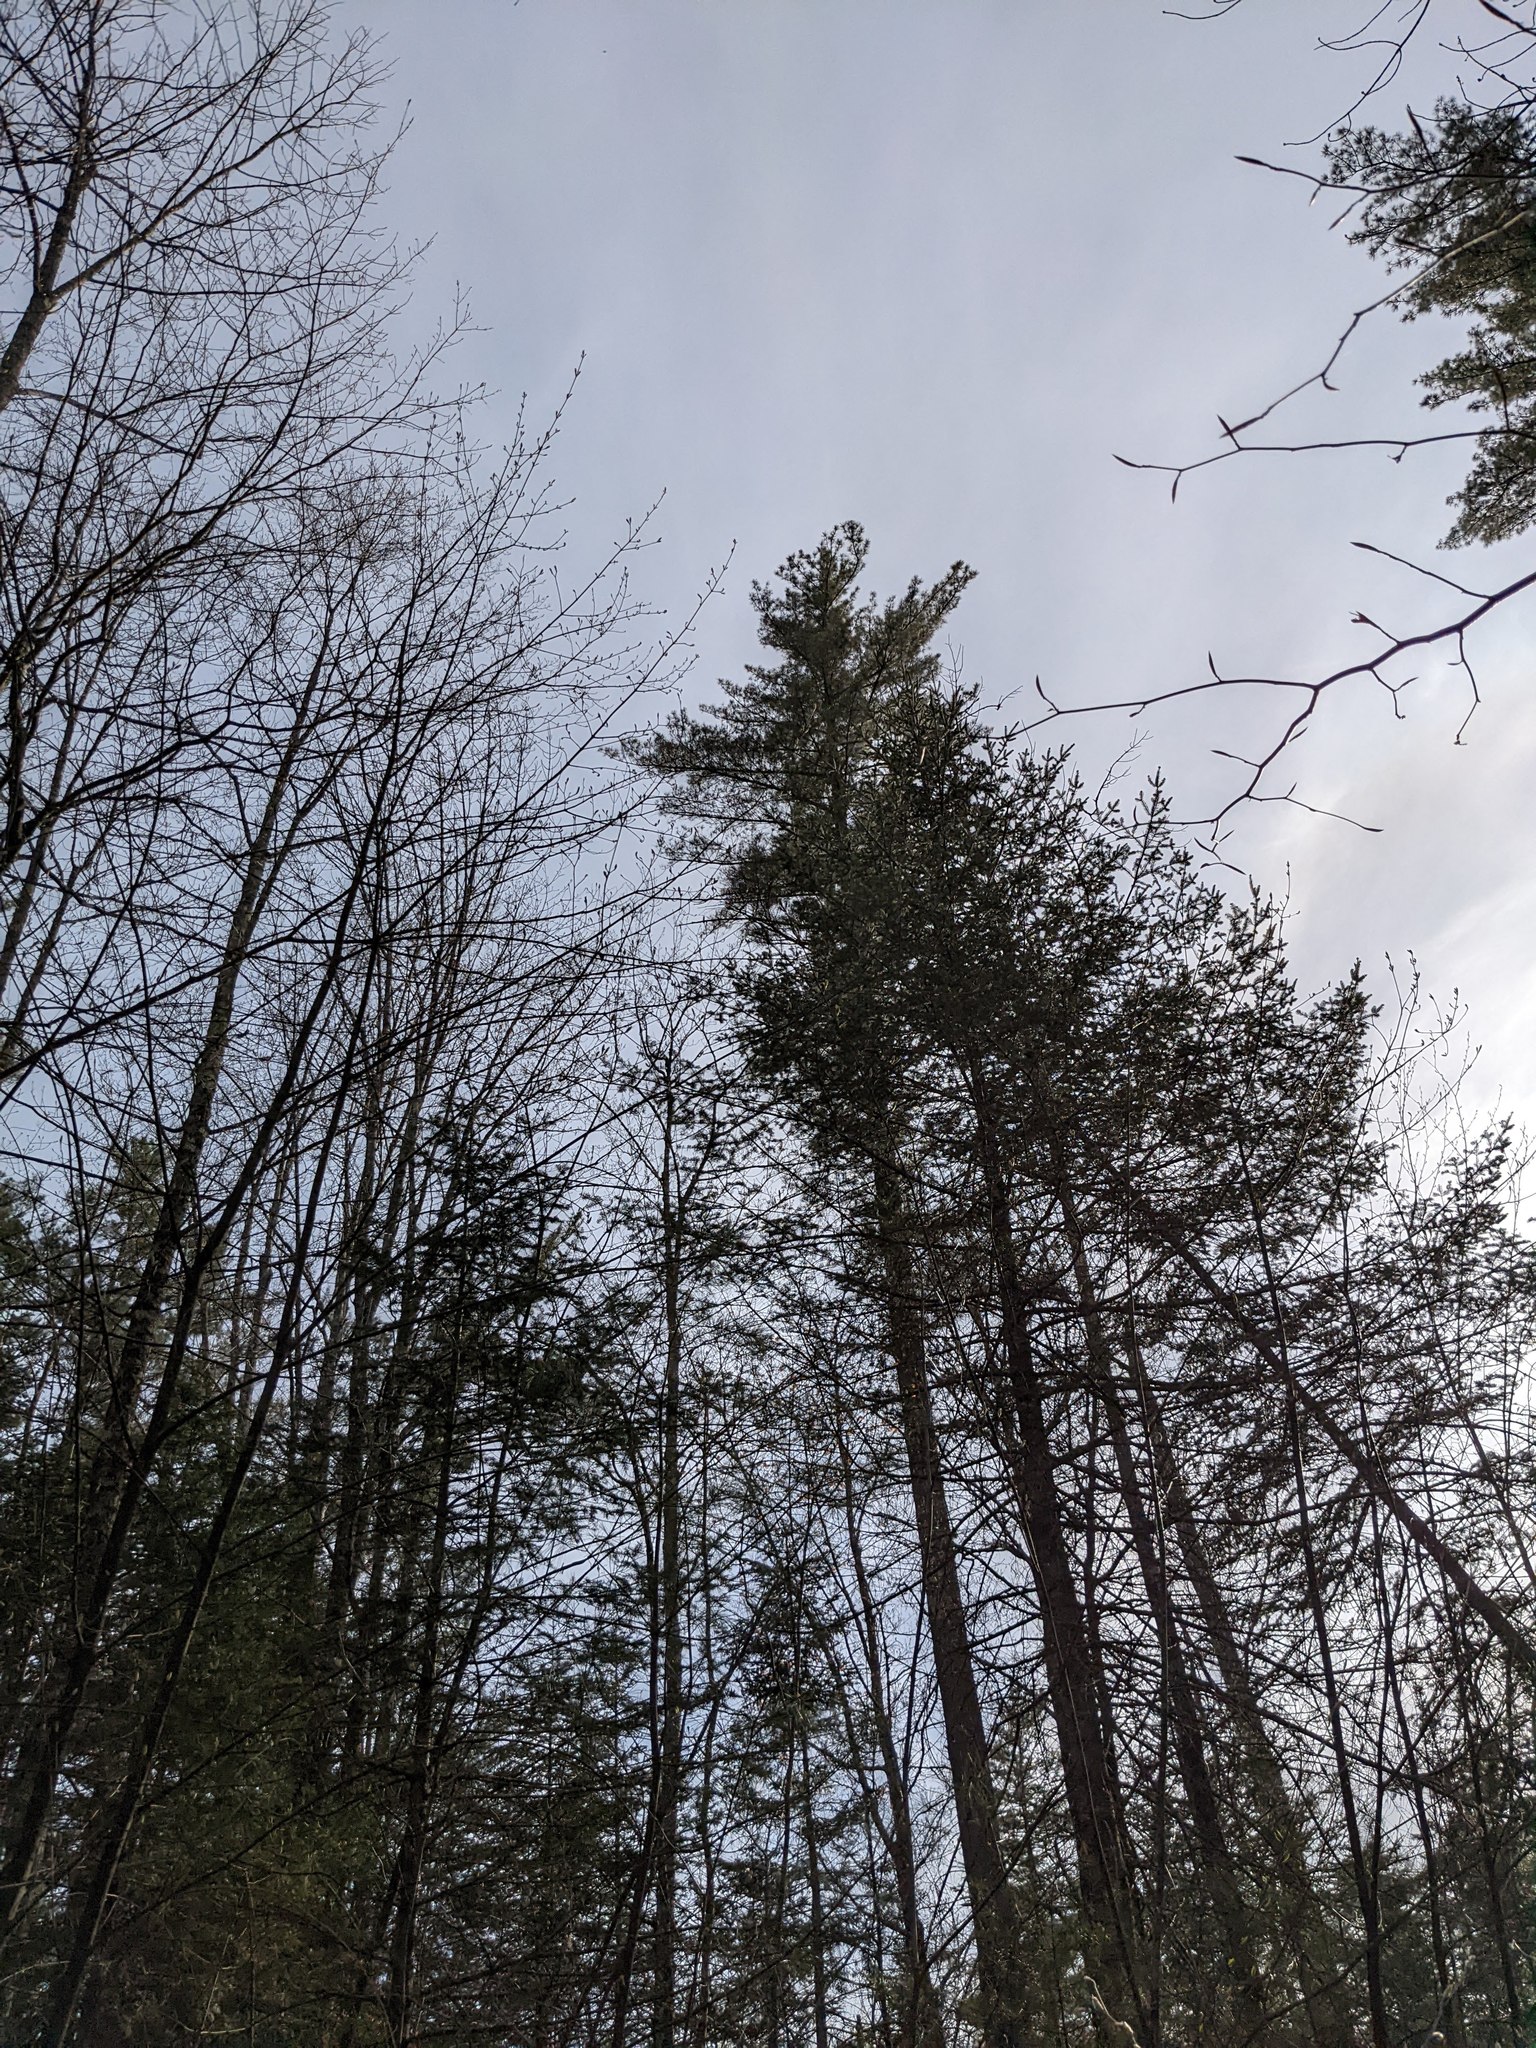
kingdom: Plantae
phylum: Tracheophyta
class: Pinopsida
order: Pinales
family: Pinaceae
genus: Pinus
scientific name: Pinus strobus
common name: Weymouth pine
